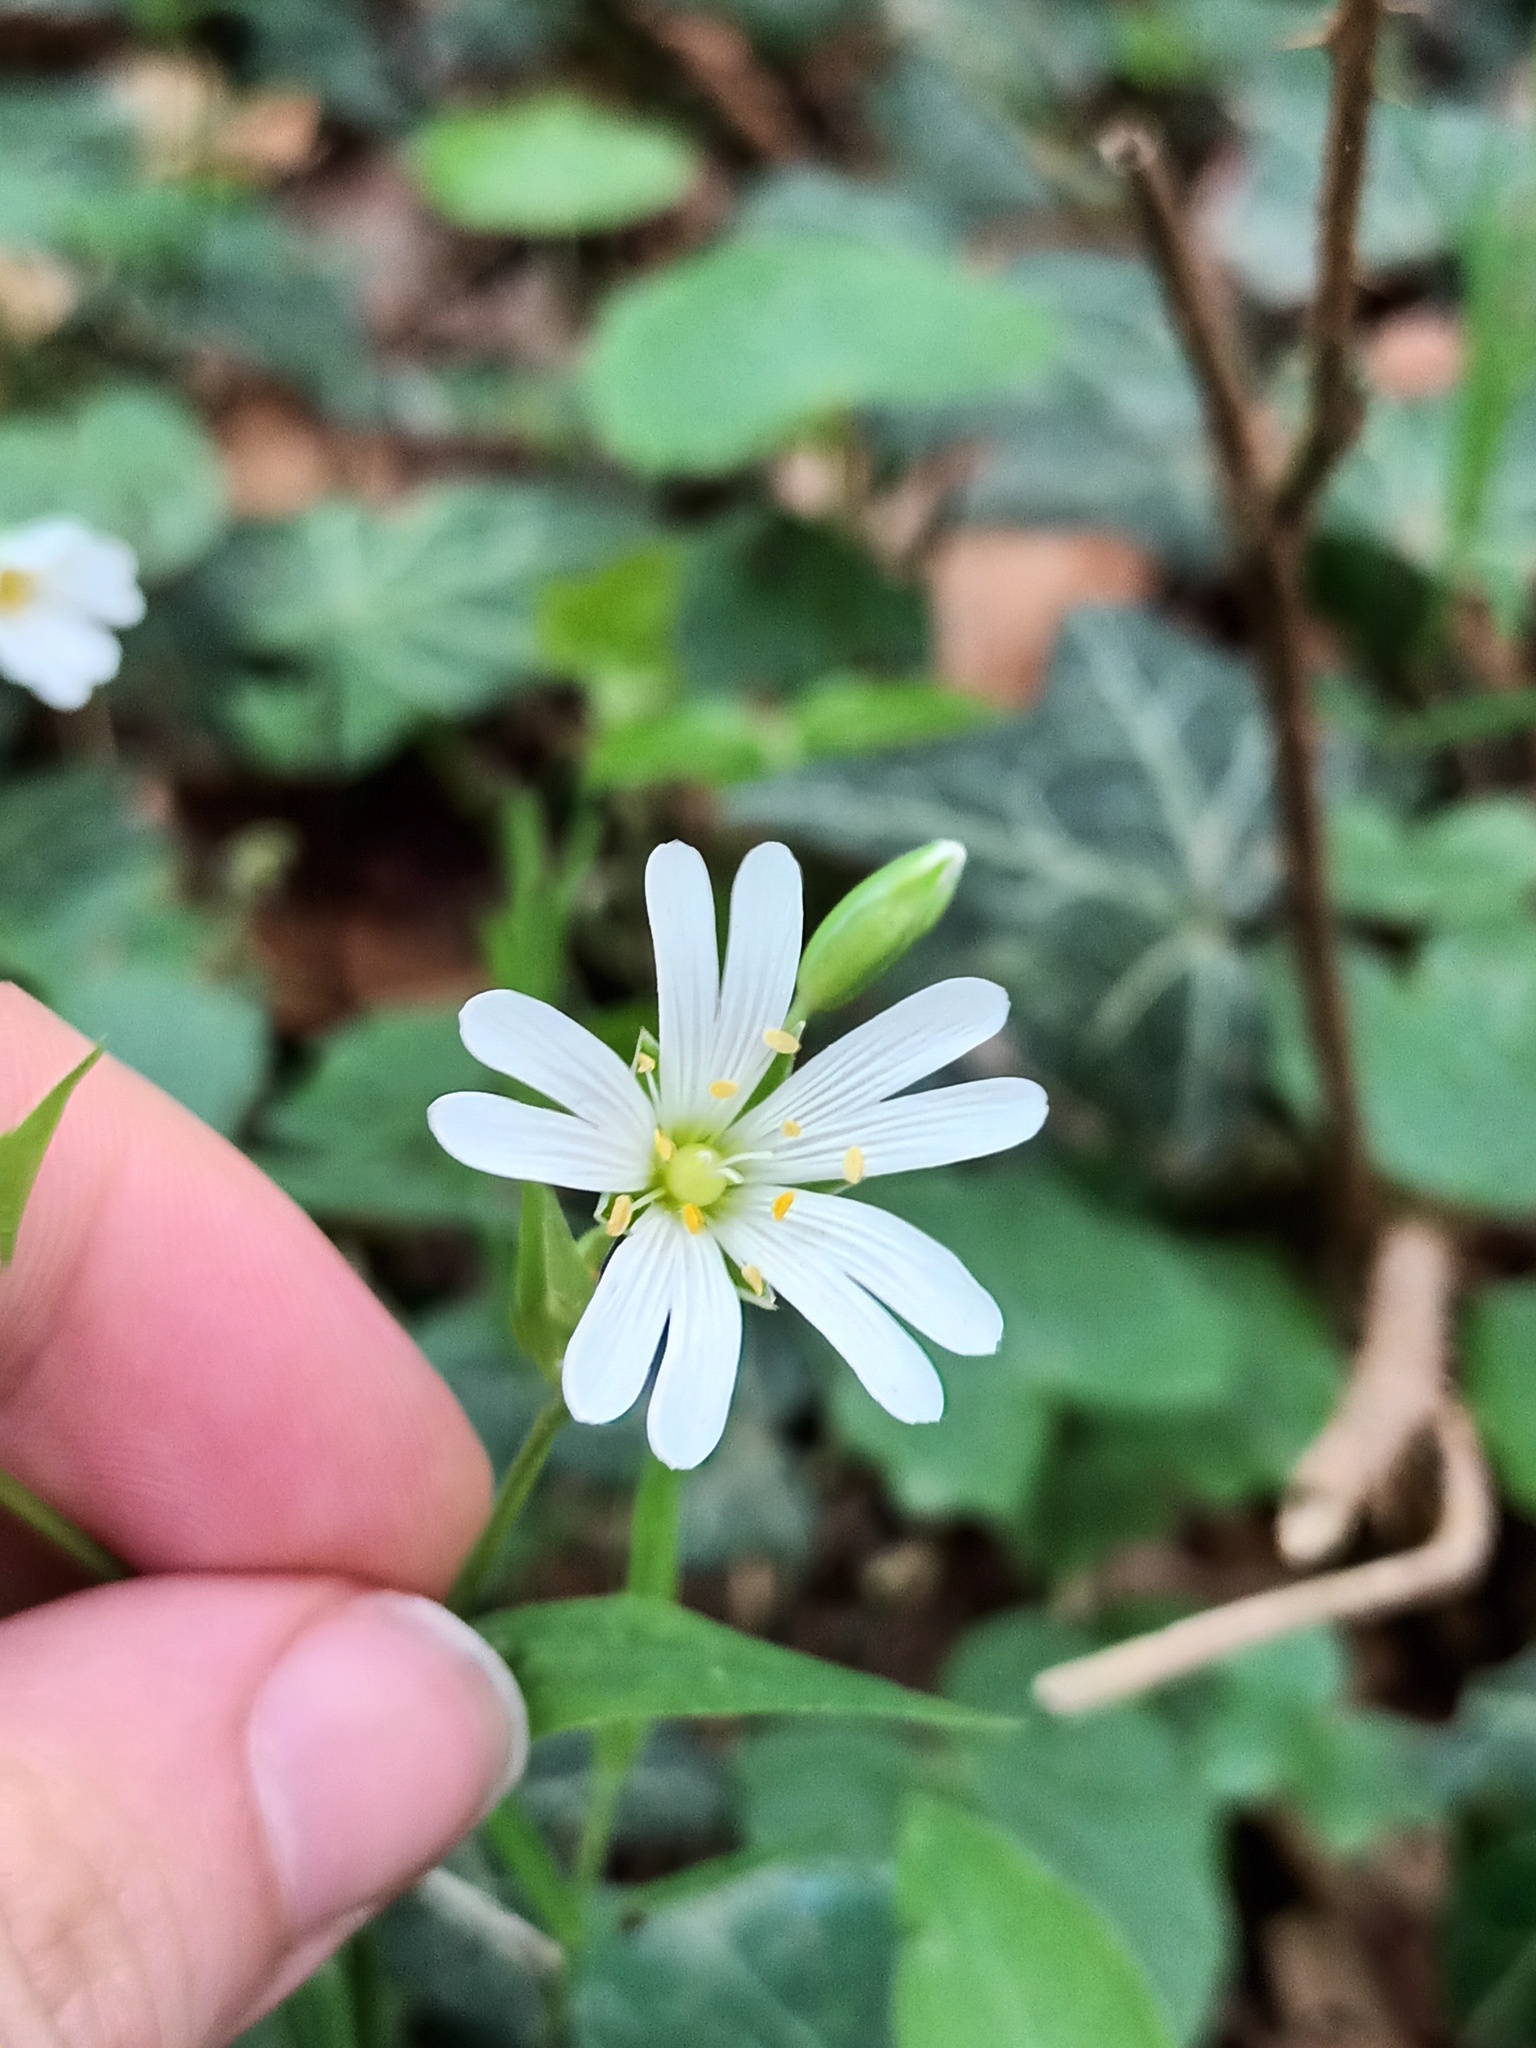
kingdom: Plantae
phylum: Tracheophyta
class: Magnoliopsida
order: Caryophyllales
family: Caryophyllaceae
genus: Rabelera
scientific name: Rabelera holostea
